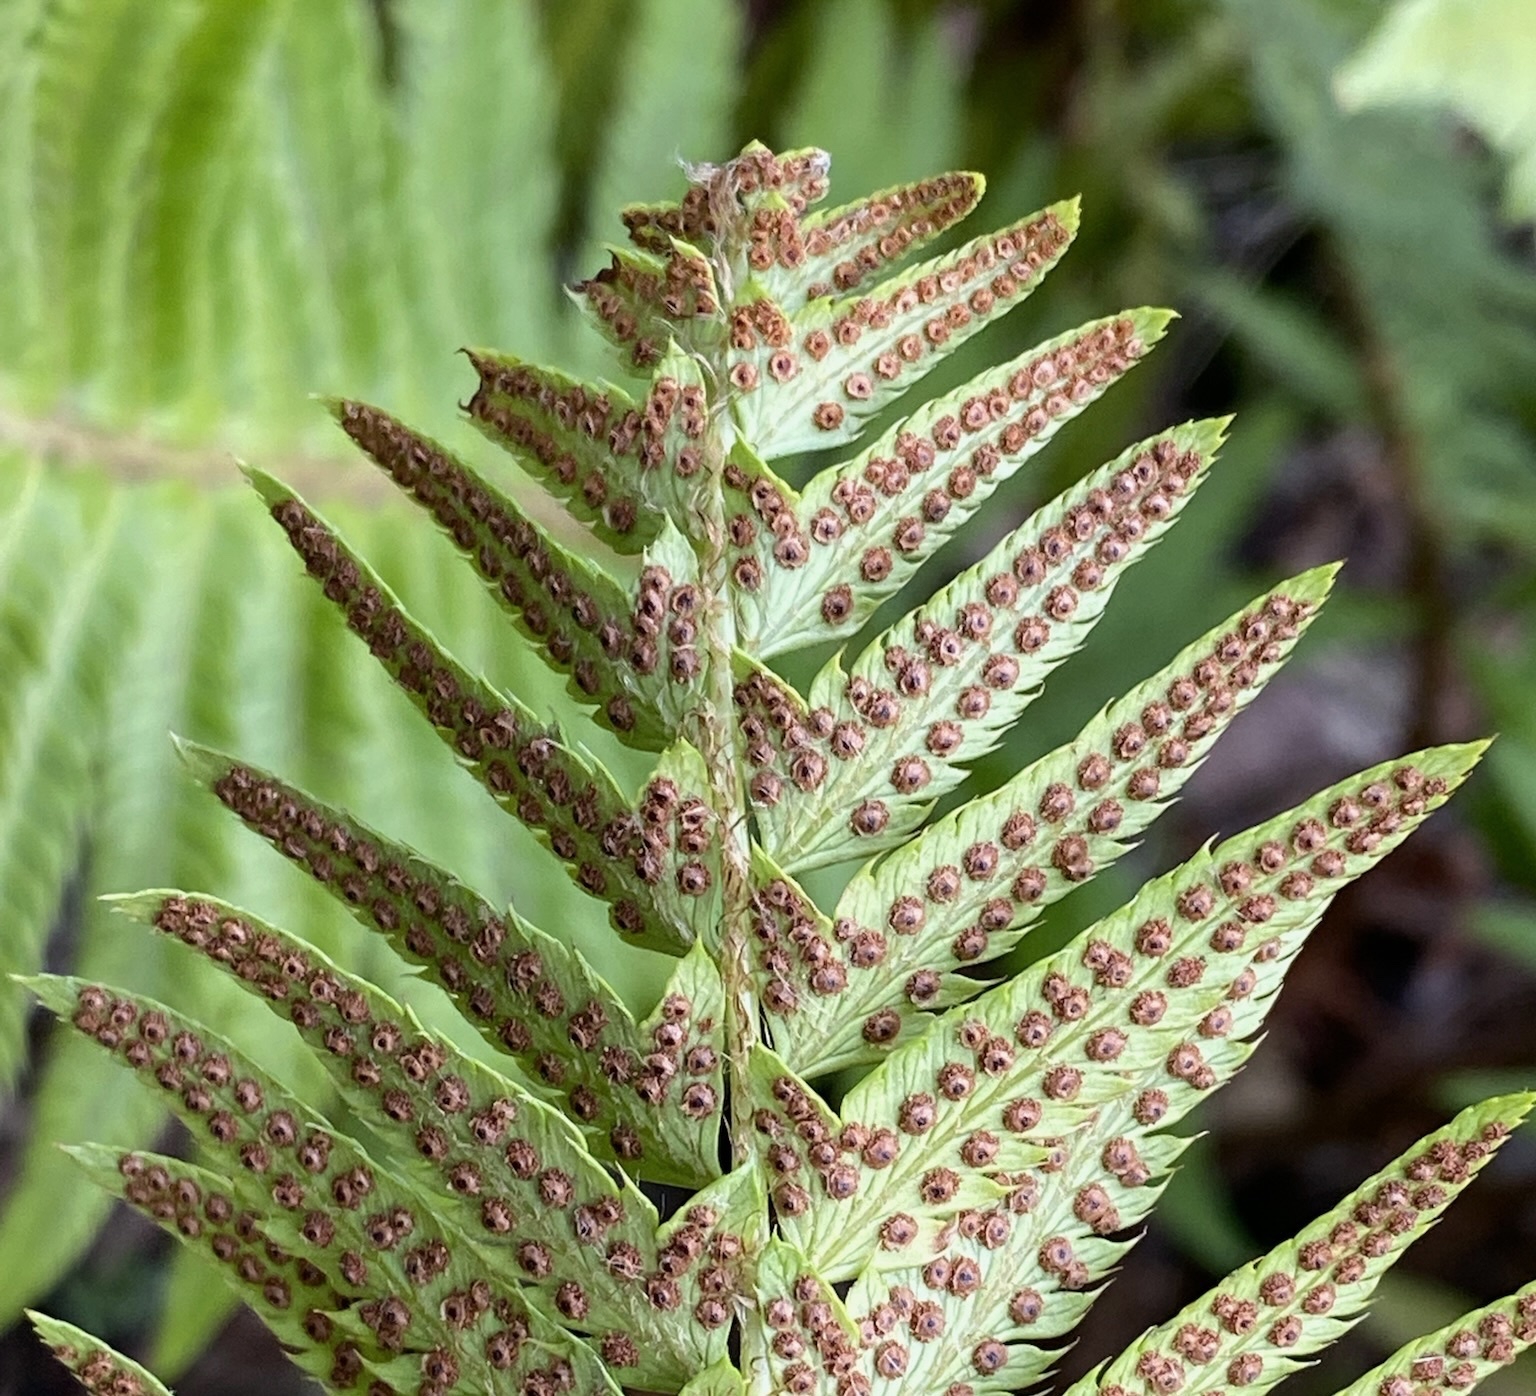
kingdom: Plantae
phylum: Tracheophyta
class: Polypodiopsida
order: Polypodiales
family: Dryopteridaceae
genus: Polystichum
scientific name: Polystichum californicum
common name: California sword fern
